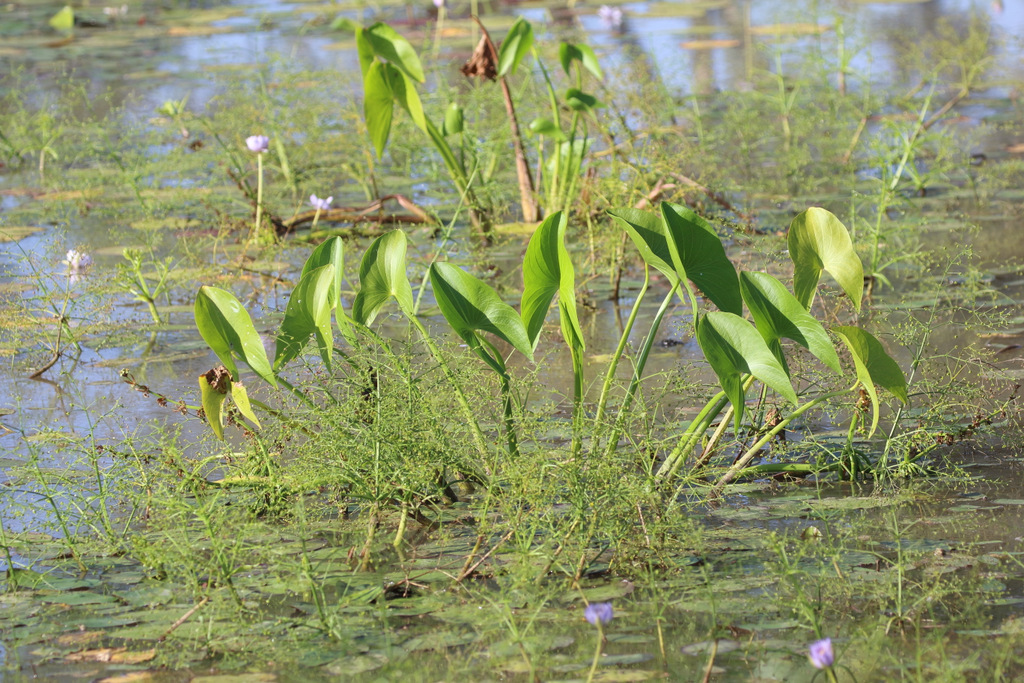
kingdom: Plantae
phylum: Tracheophyta
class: Liliopsida
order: Alismatales
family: Alismataceae
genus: Astonia
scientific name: Astonia australiensis
